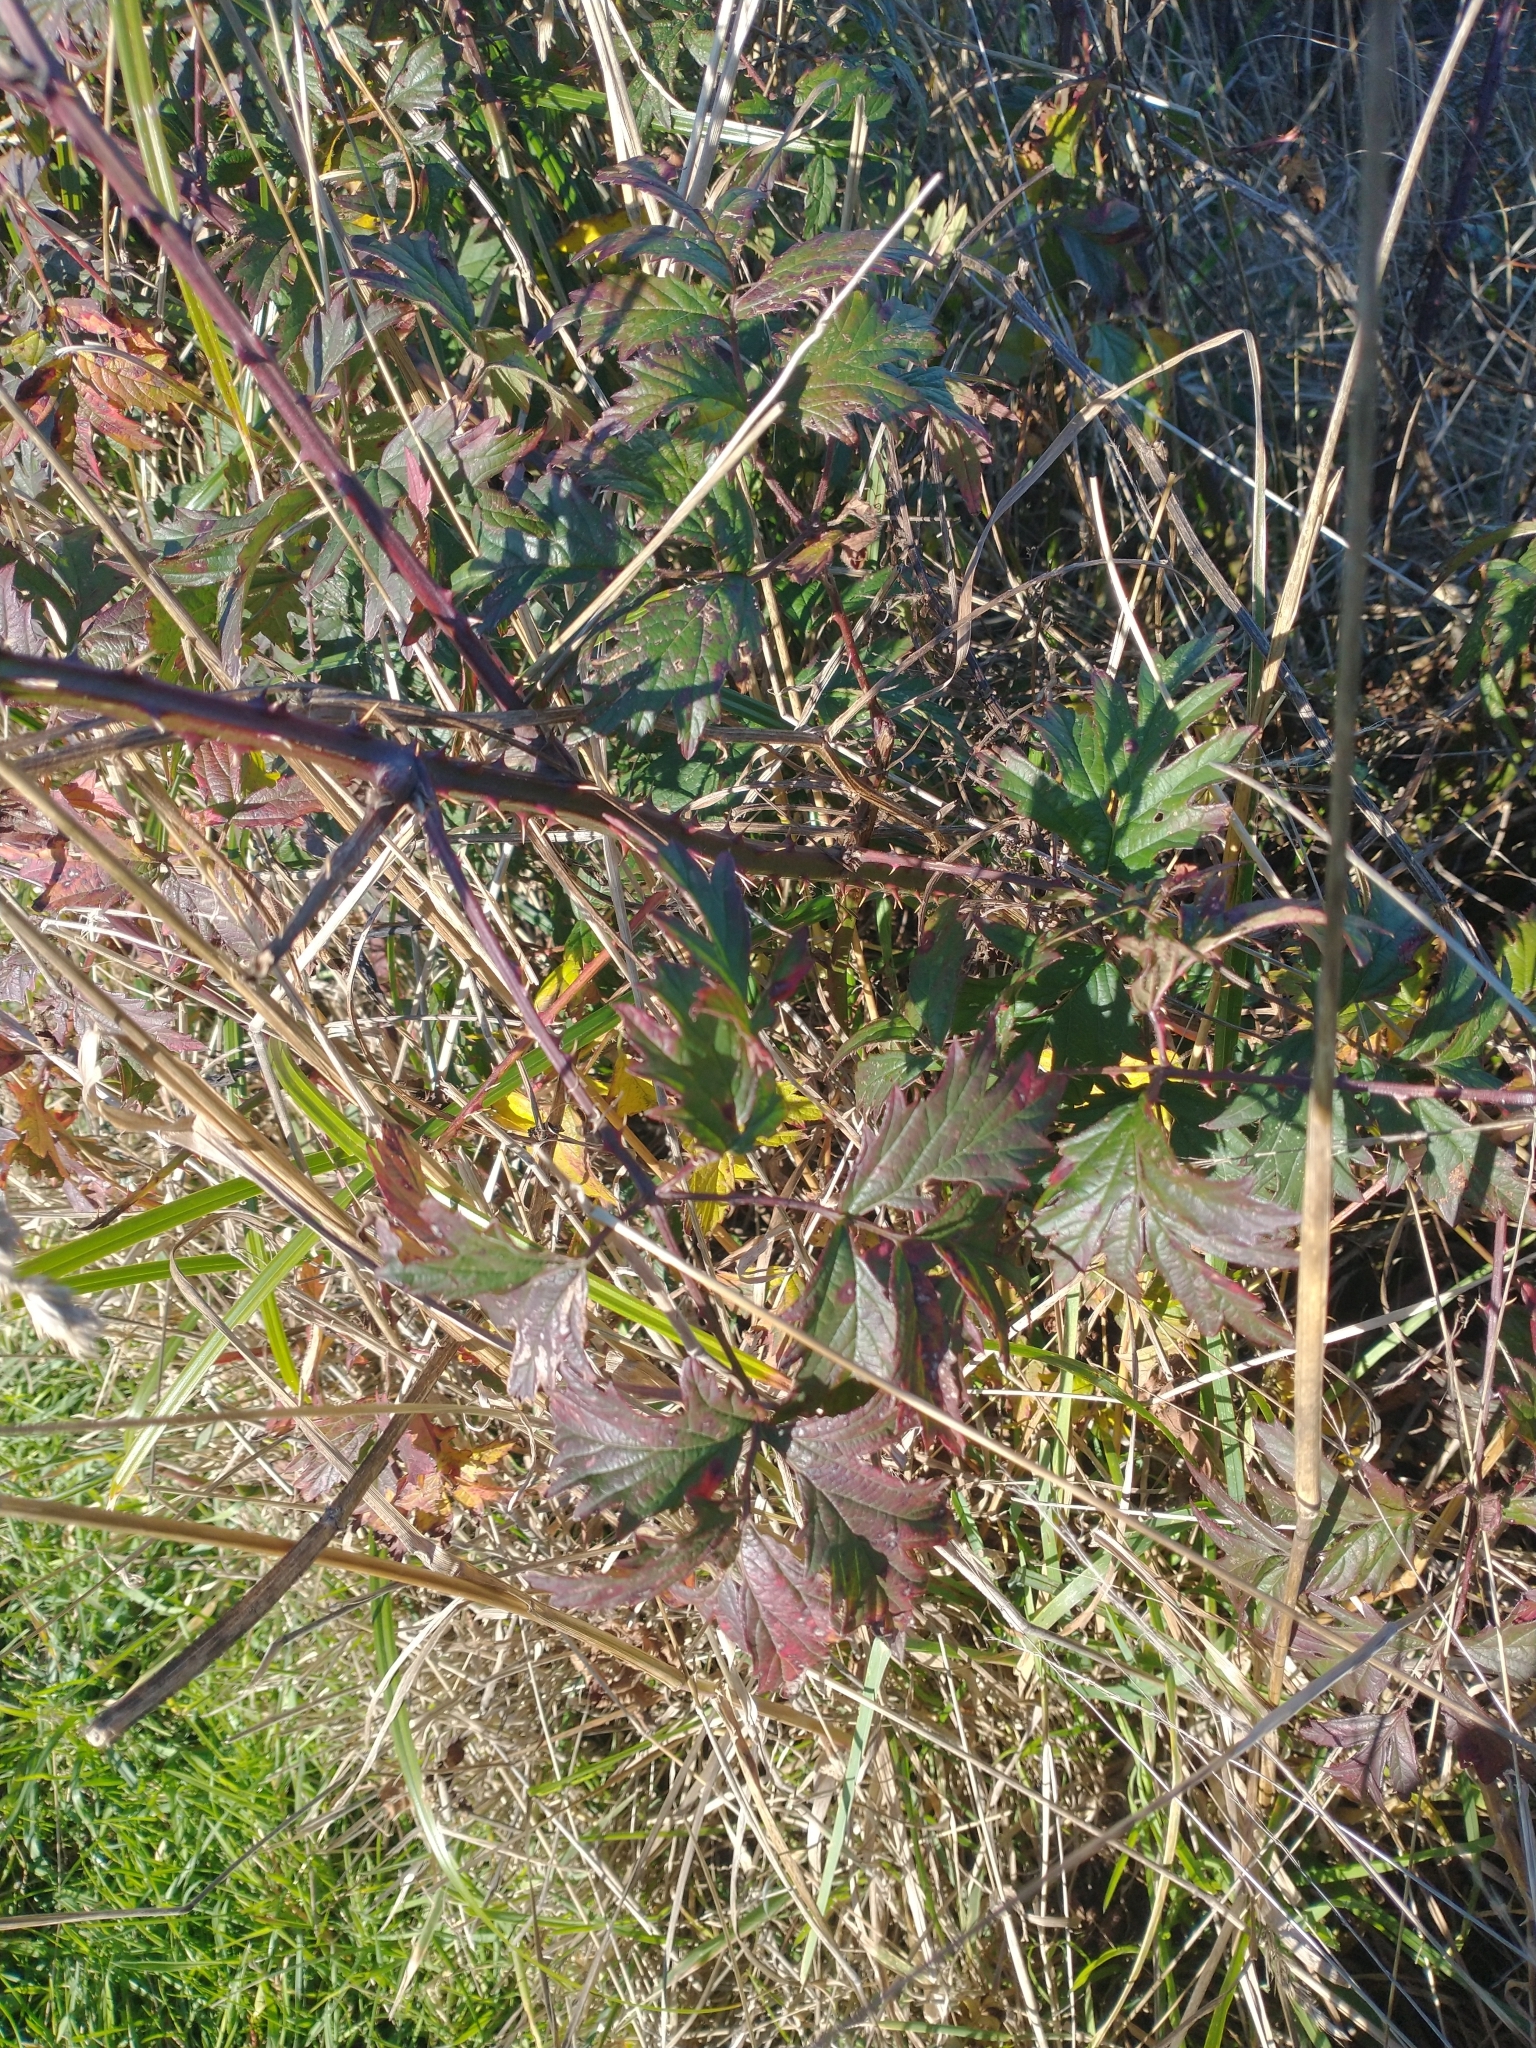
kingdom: Plantae
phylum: Tracheophyta
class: Magnoliopsida
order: Rosales
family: Rosaceae
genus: Rubus
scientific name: Rubus laciniatus
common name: Evergreen blackberry
